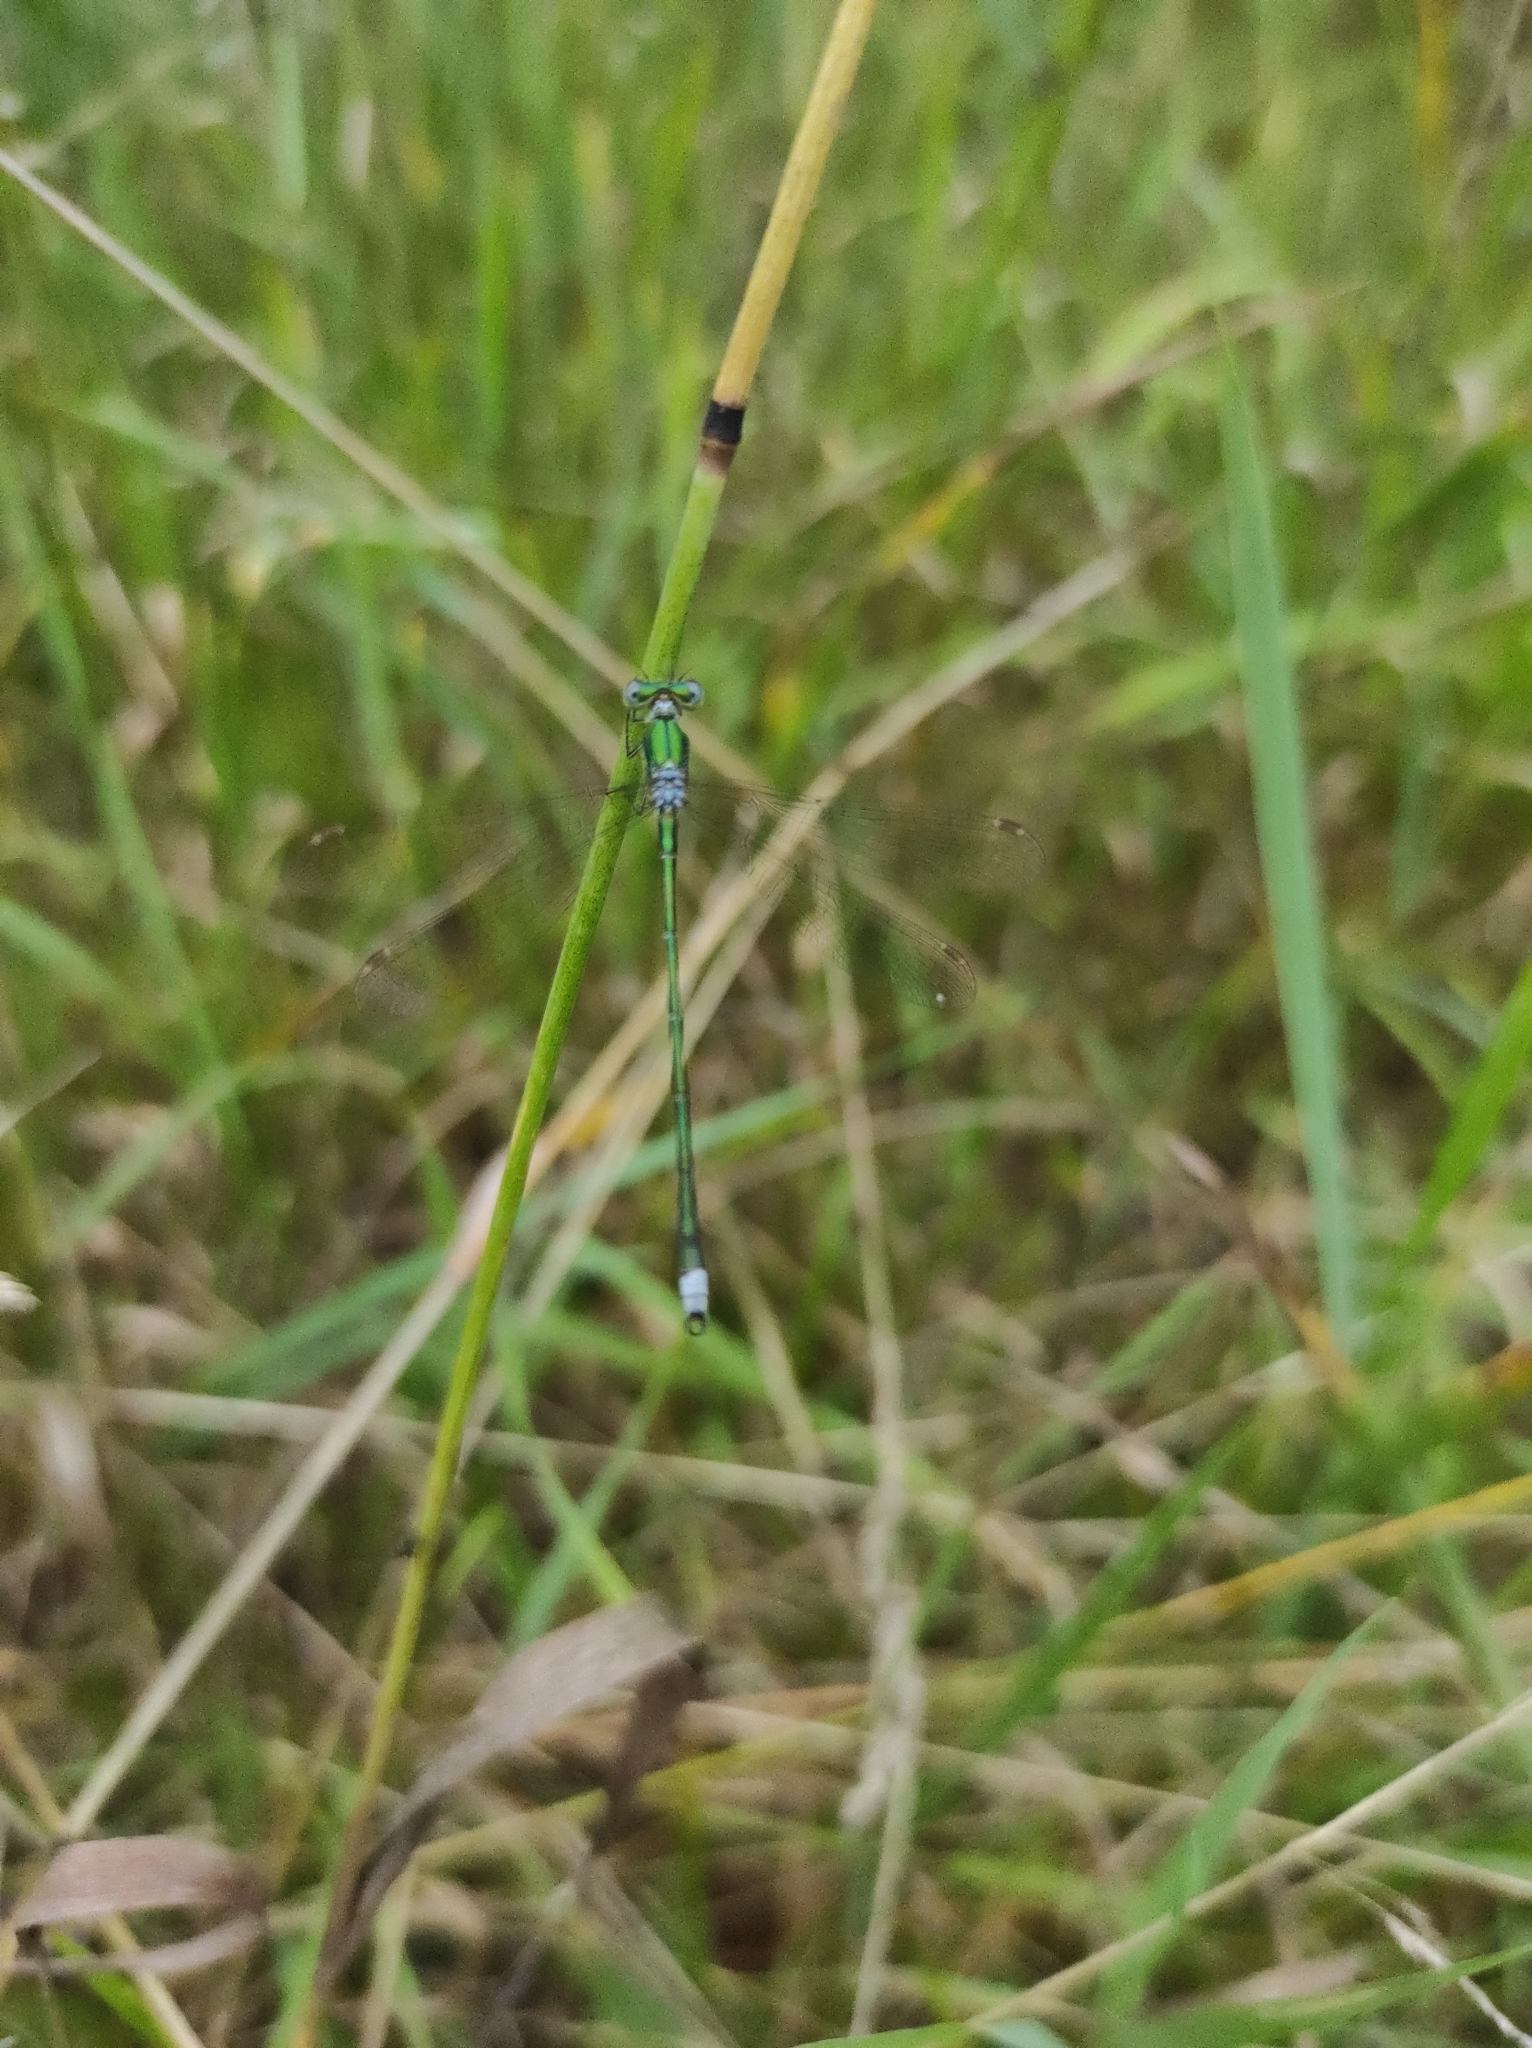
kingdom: Animalia
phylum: Arthropoda
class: Insecta
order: Odonata
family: Lestidae
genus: Lestes
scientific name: Lestes virens
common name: Small emerald spreadwing
